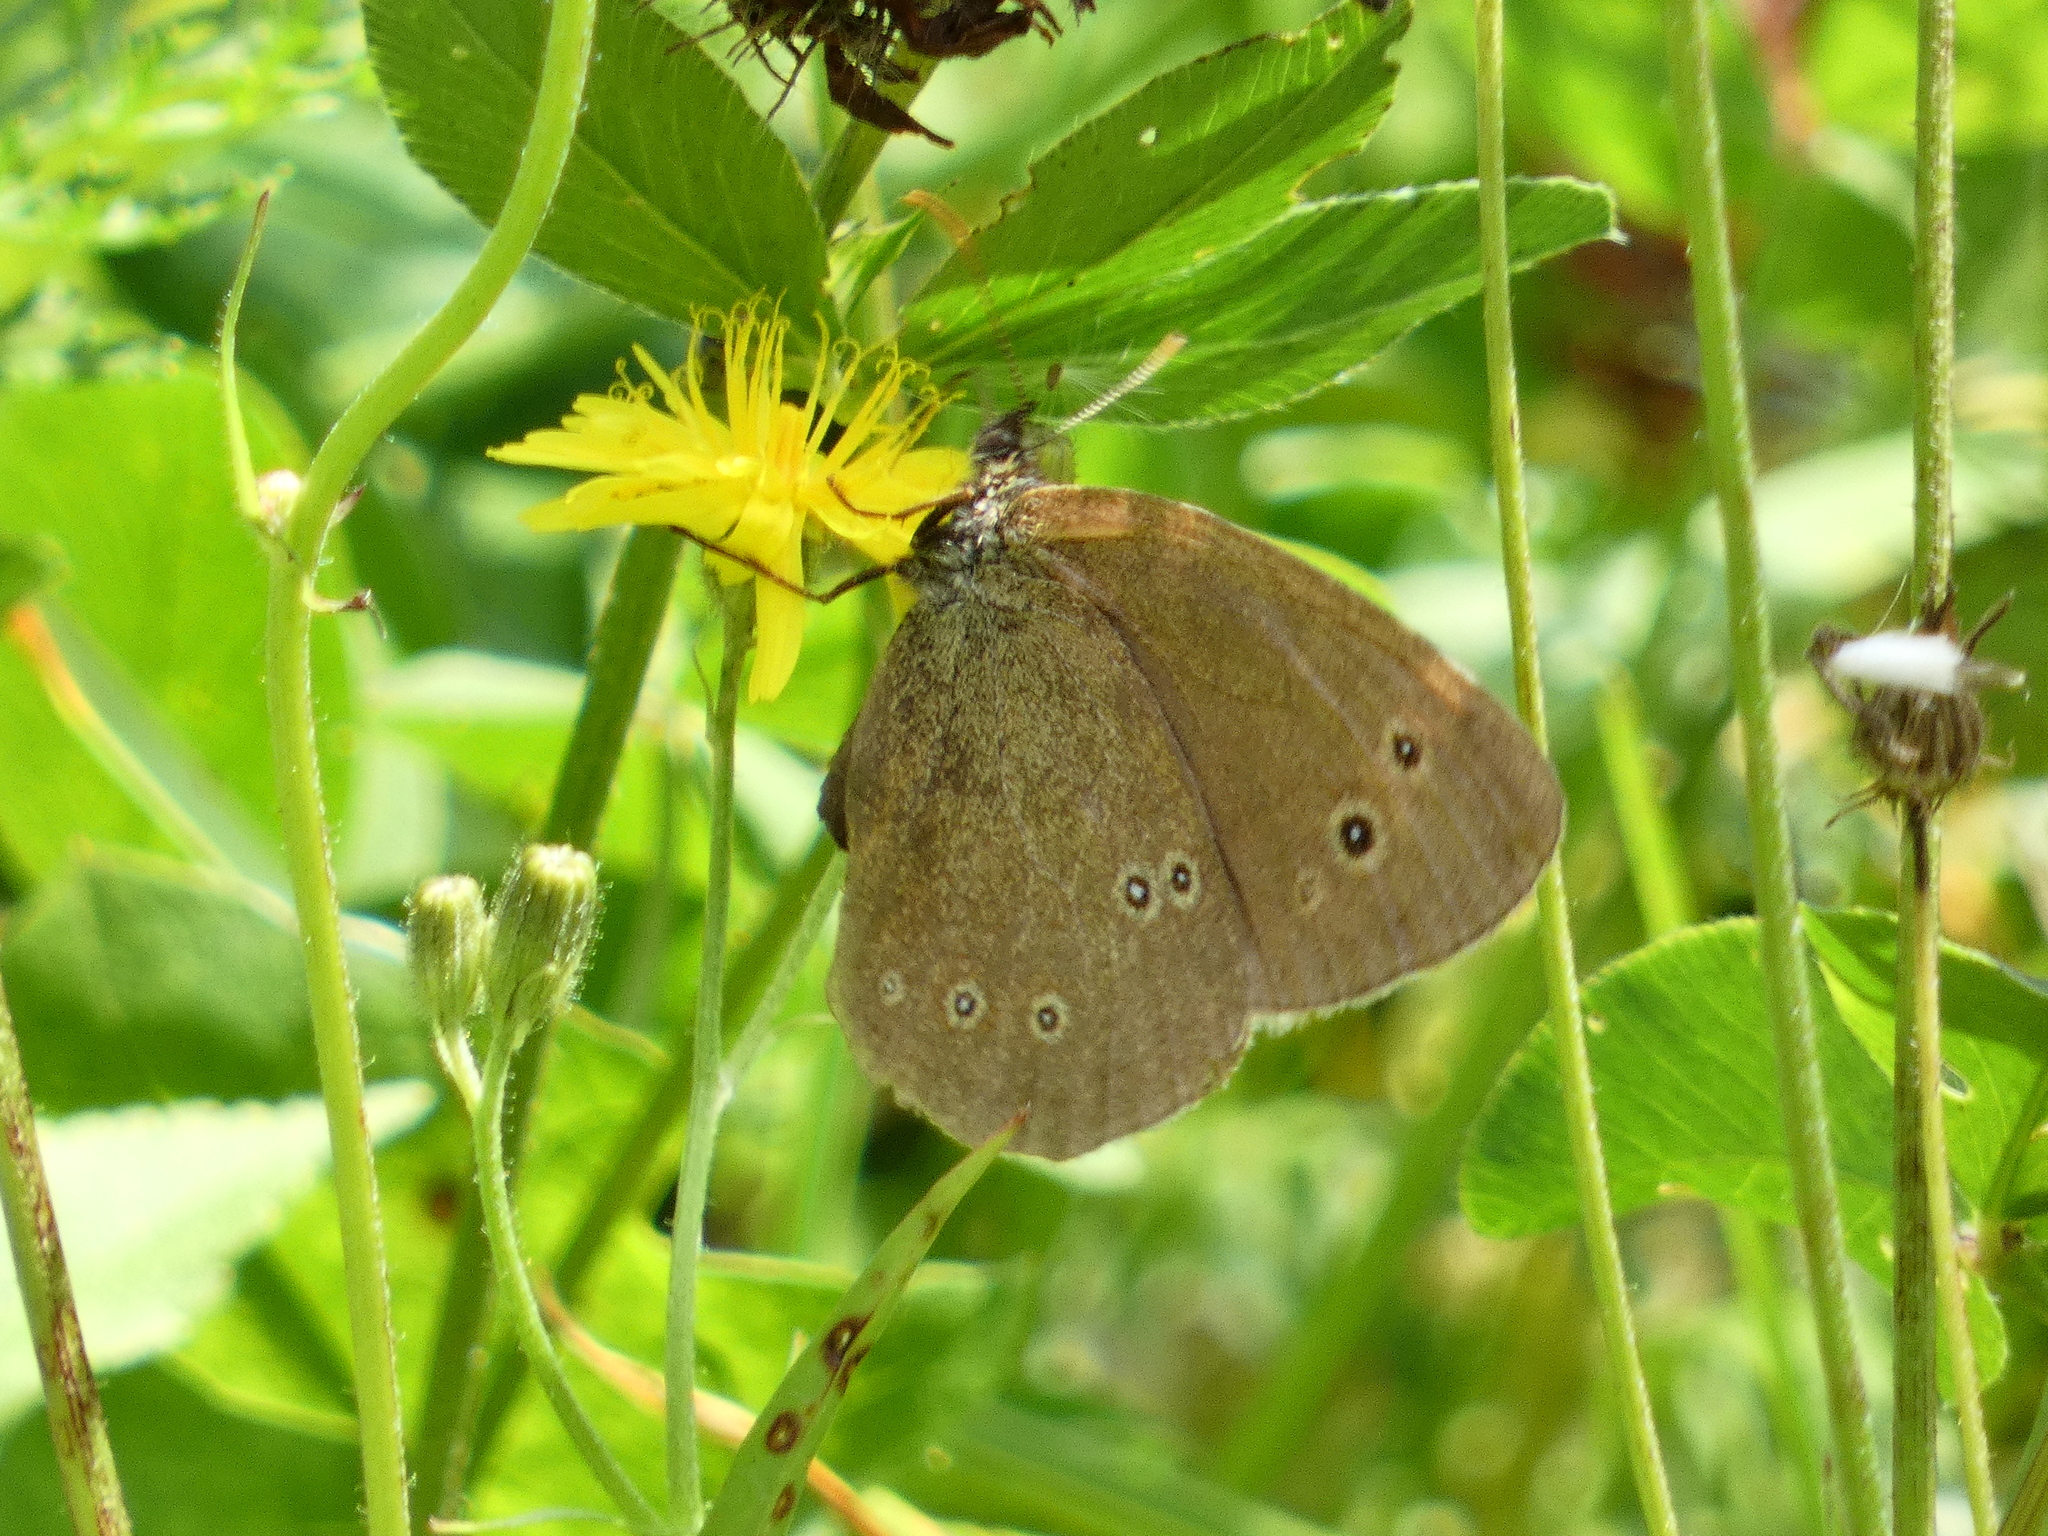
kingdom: Animalia
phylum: Arthropoda
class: Insecta
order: Lepidoptera
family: Nymphalidae
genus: Aphantopus
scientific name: Aphantopus hyperantus
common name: Ringlet
